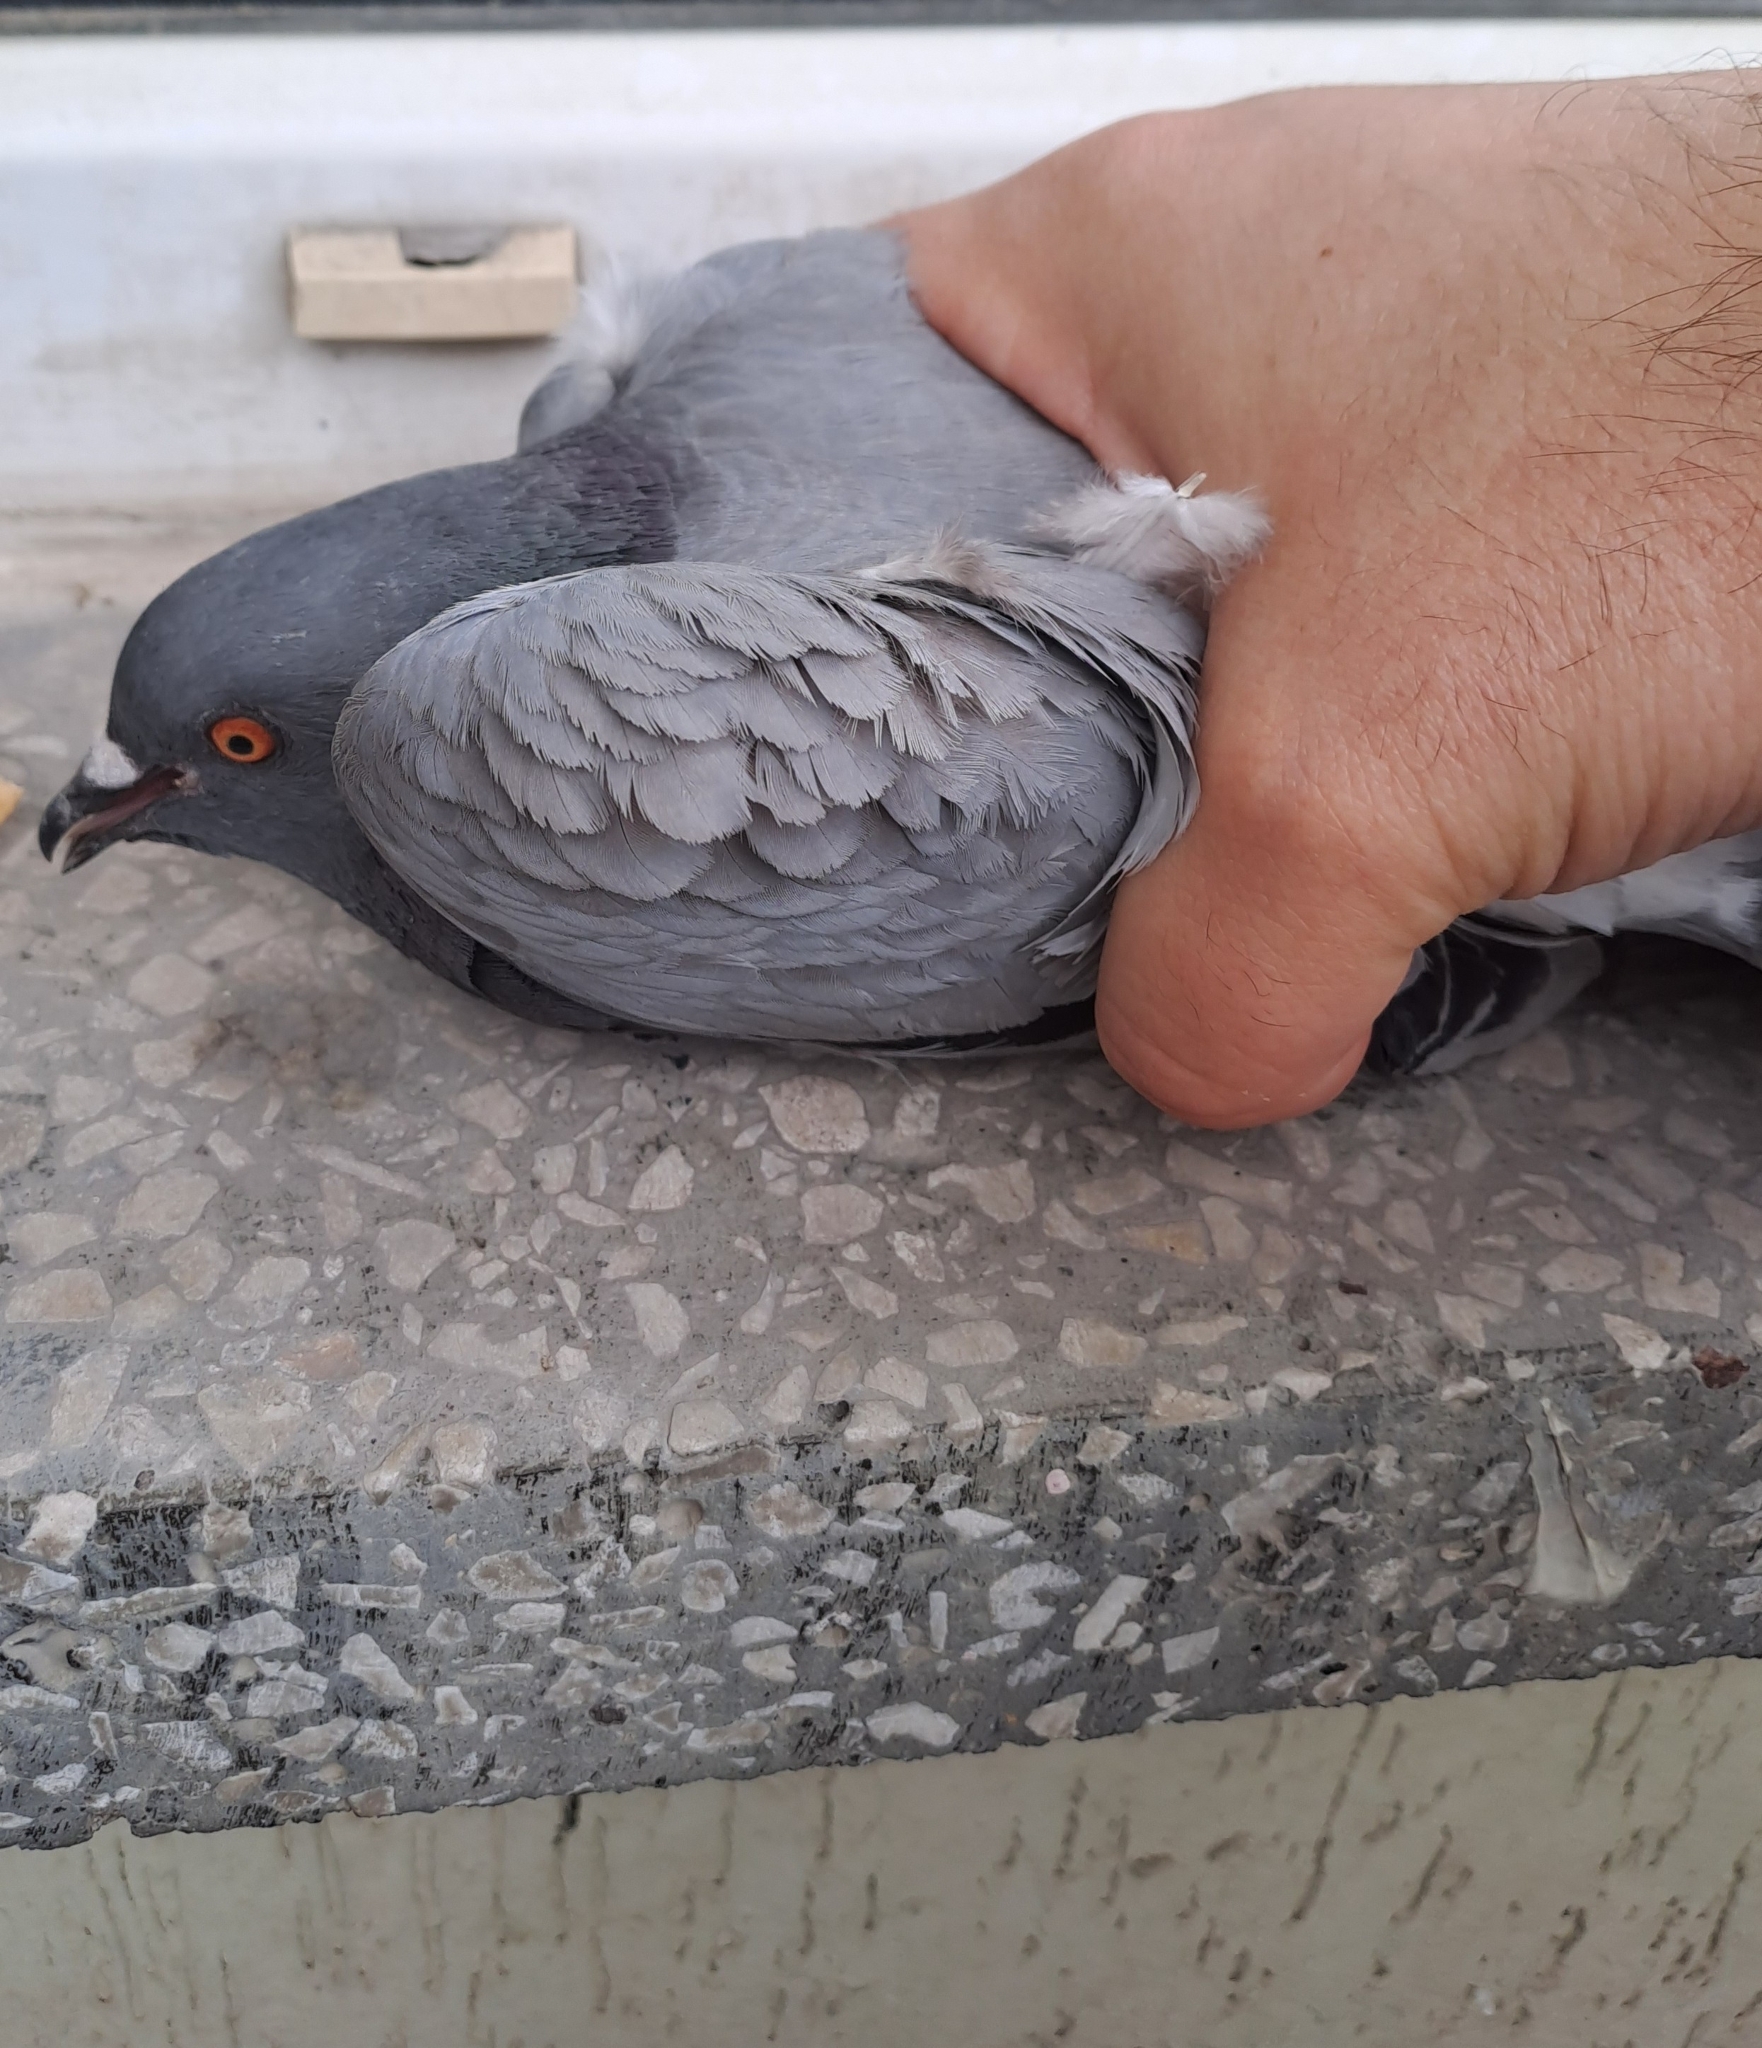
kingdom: Animalia
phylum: Chordata
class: Aves
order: Columbiformes
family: Columbidae
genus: Columba
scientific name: Columba livia
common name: Rock pigeon
